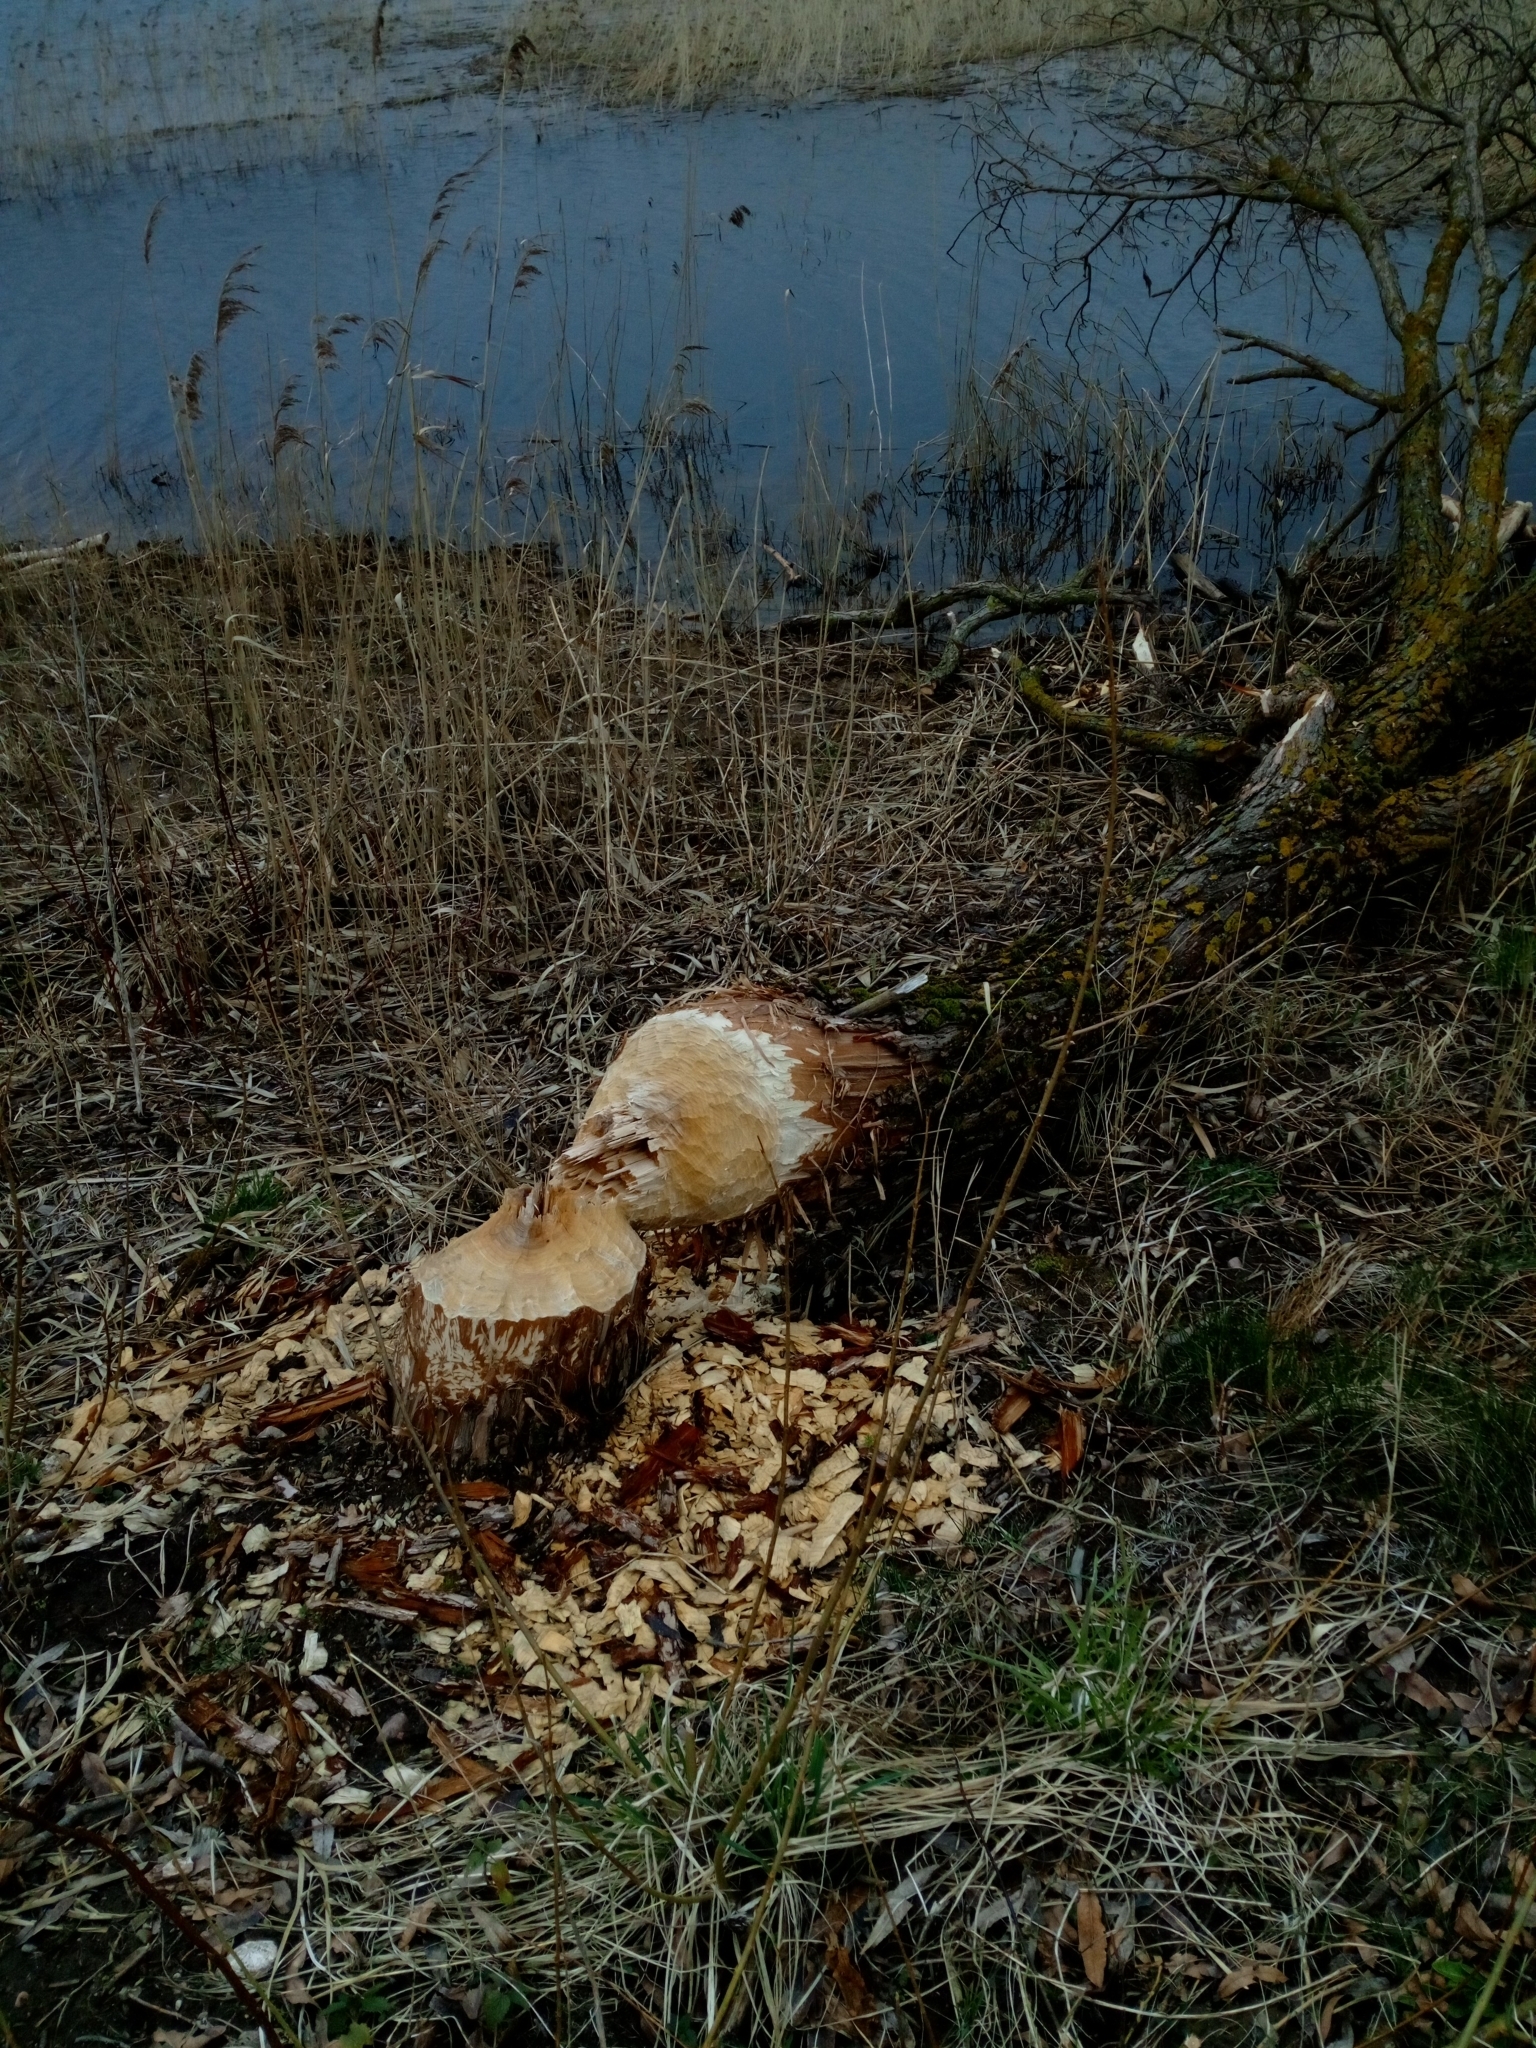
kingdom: Animalia
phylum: Chordata
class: Mammalia
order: Rodentia
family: Castoridae
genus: Castor
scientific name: Castor fiber
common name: Eurasian beaver
